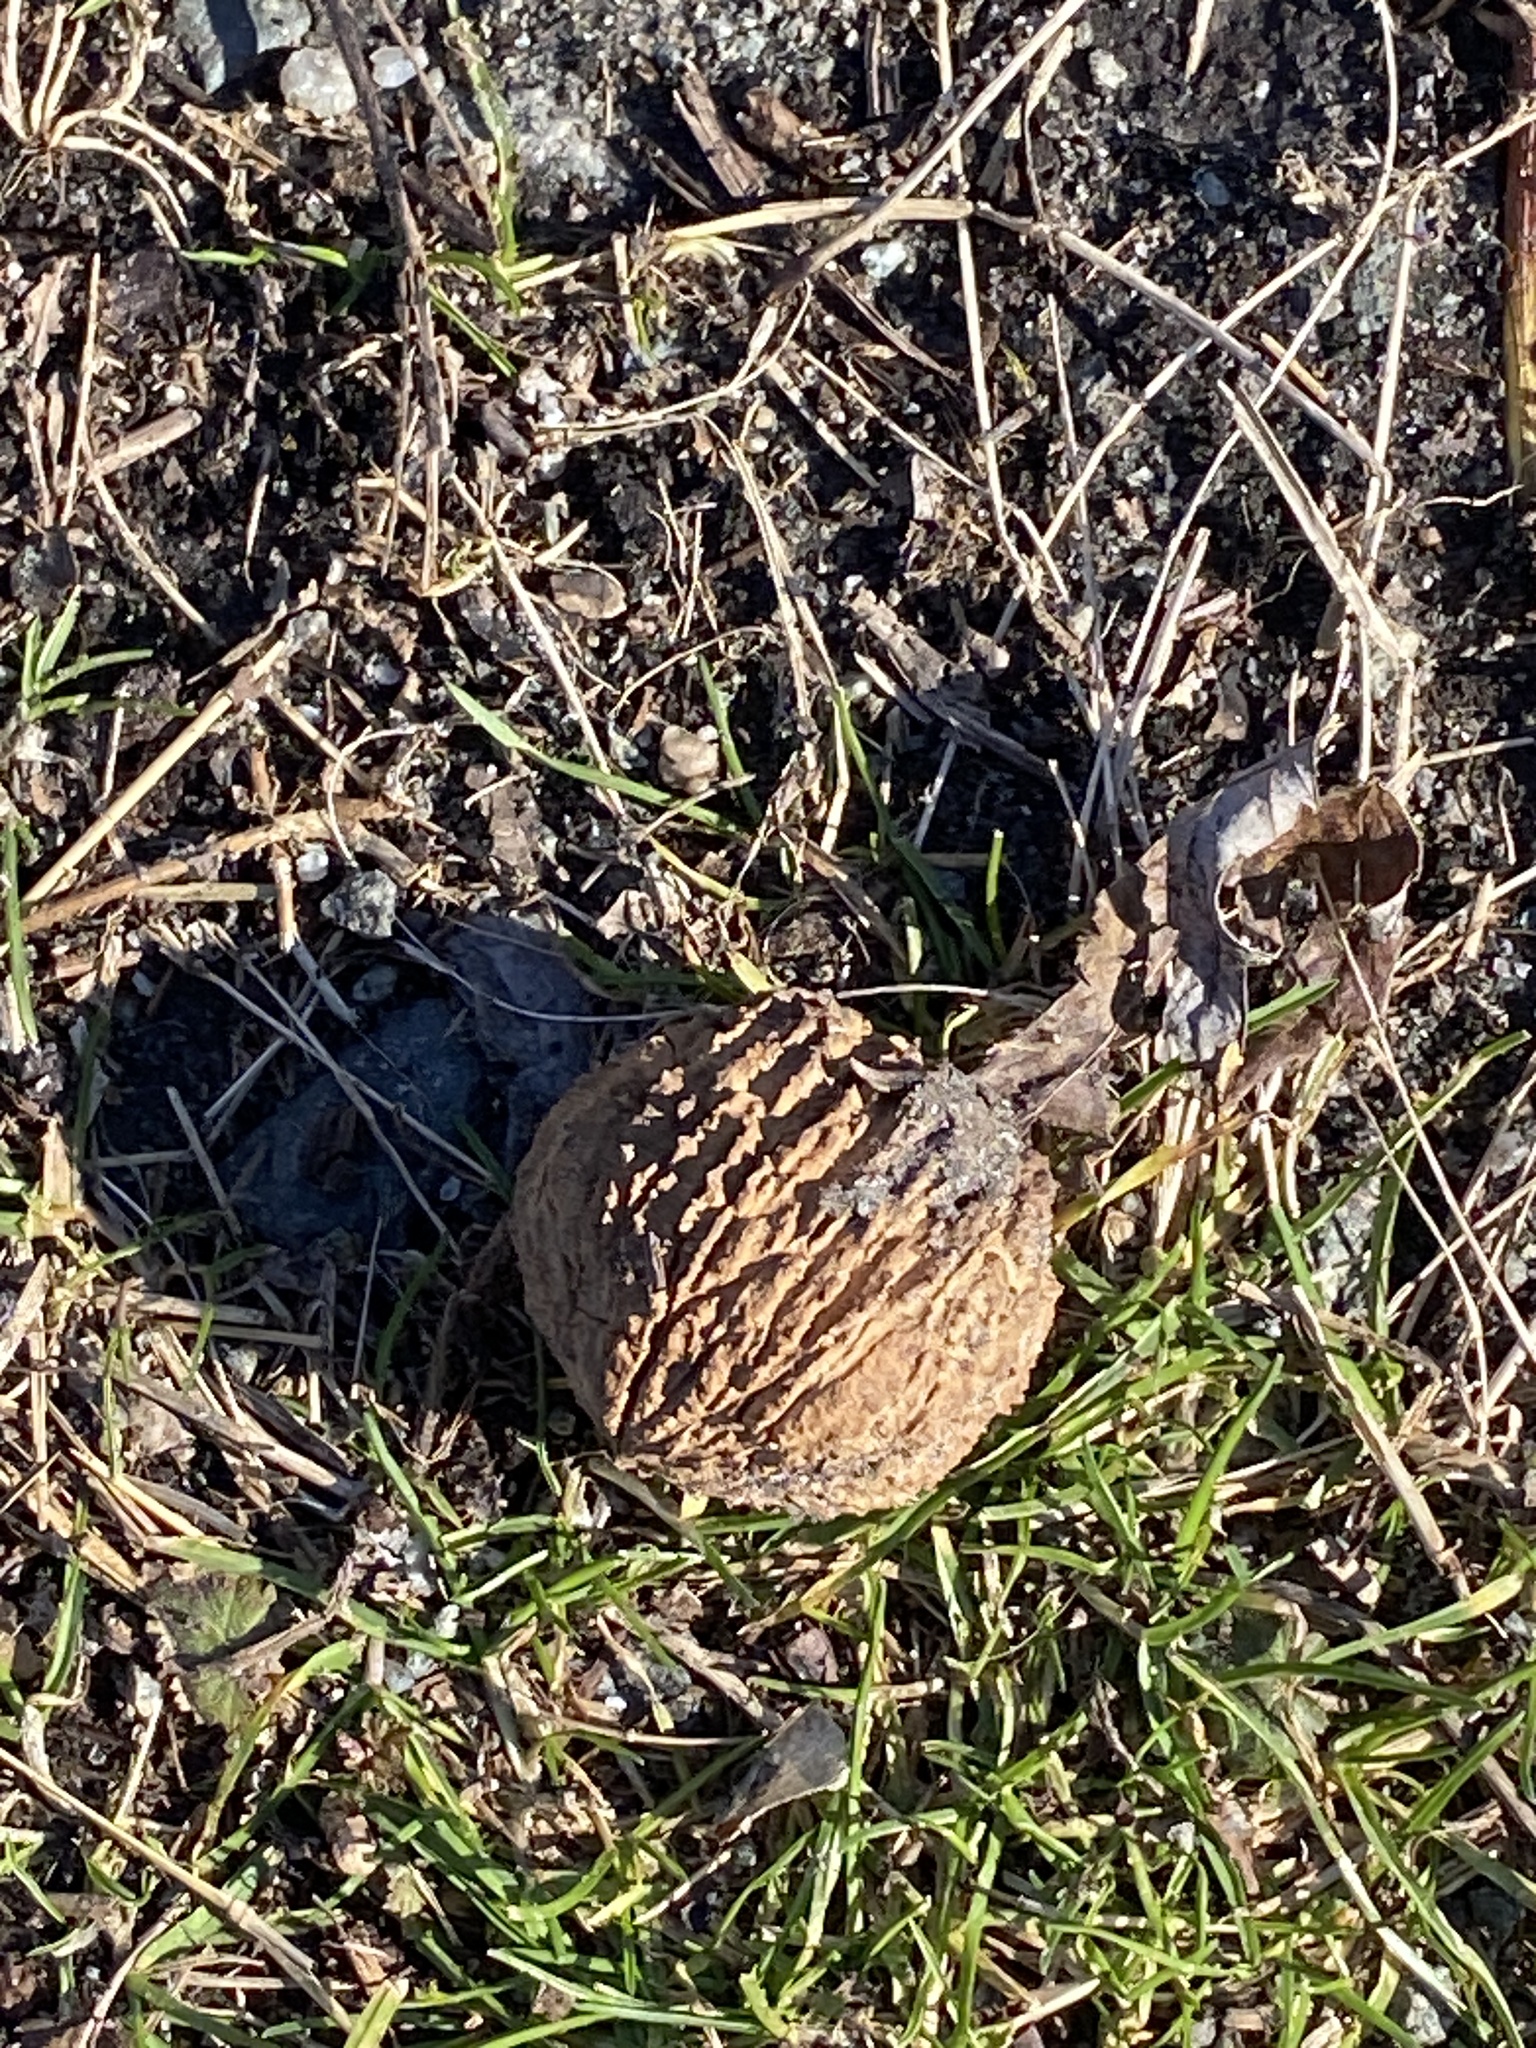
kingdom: Plantae
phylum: Tracheophyta
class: Magnoliopsida
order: Fagales
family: Juglandaceae
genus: Juglans
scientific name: Juglans nigra
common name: Black walnut
